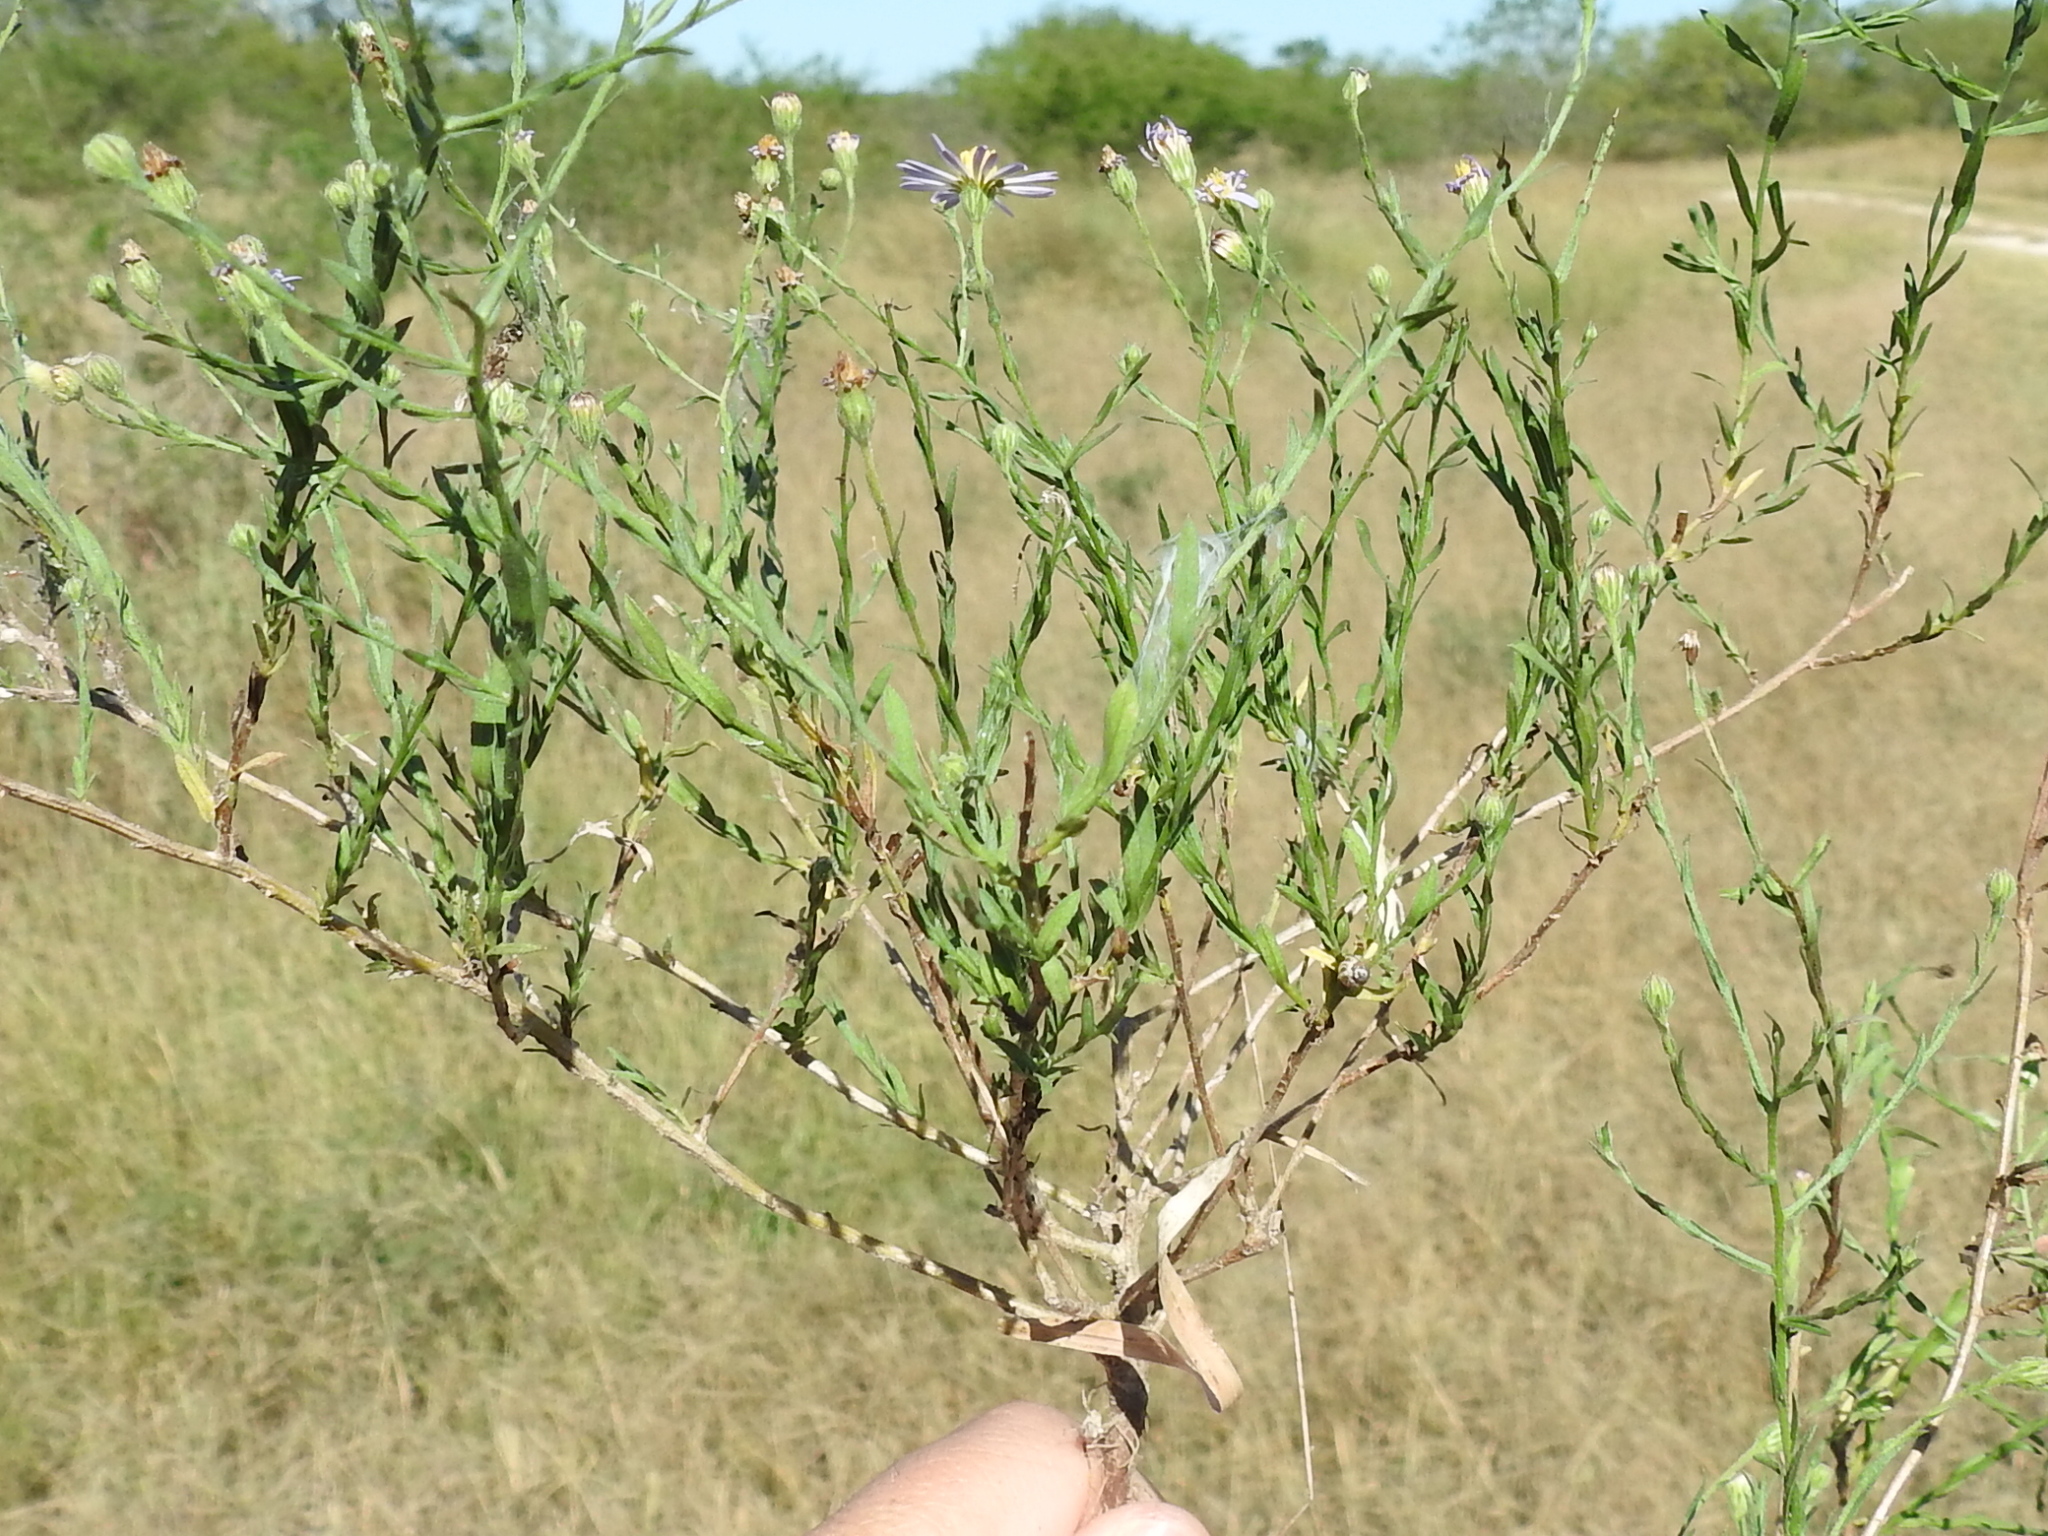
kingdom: Plantae
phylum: Tracheophyta
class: Magnoliopsida
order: Asterales
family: Asteraceae
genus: Psilactis
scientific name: Psilactis heterocarpa
